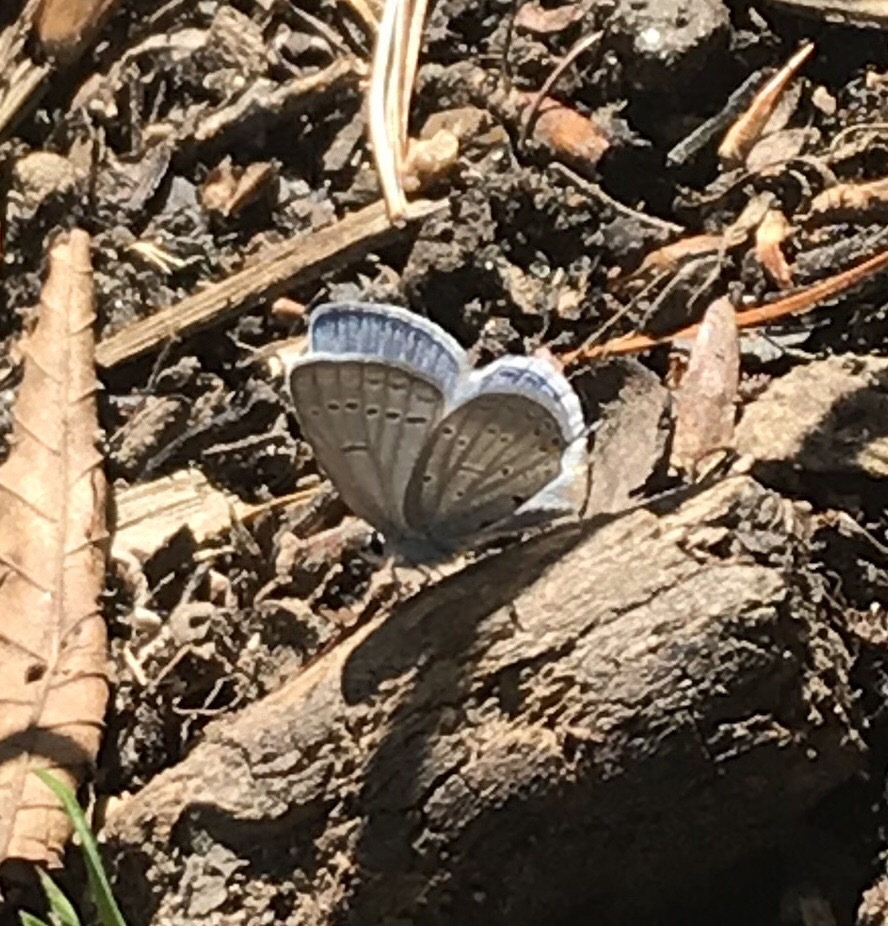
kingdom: Animalia
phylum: Arthropoda
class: Insecta
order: Lepidoptera
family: Lycaenidae
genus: Elkalyce
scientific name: Elkalyce comyntas
